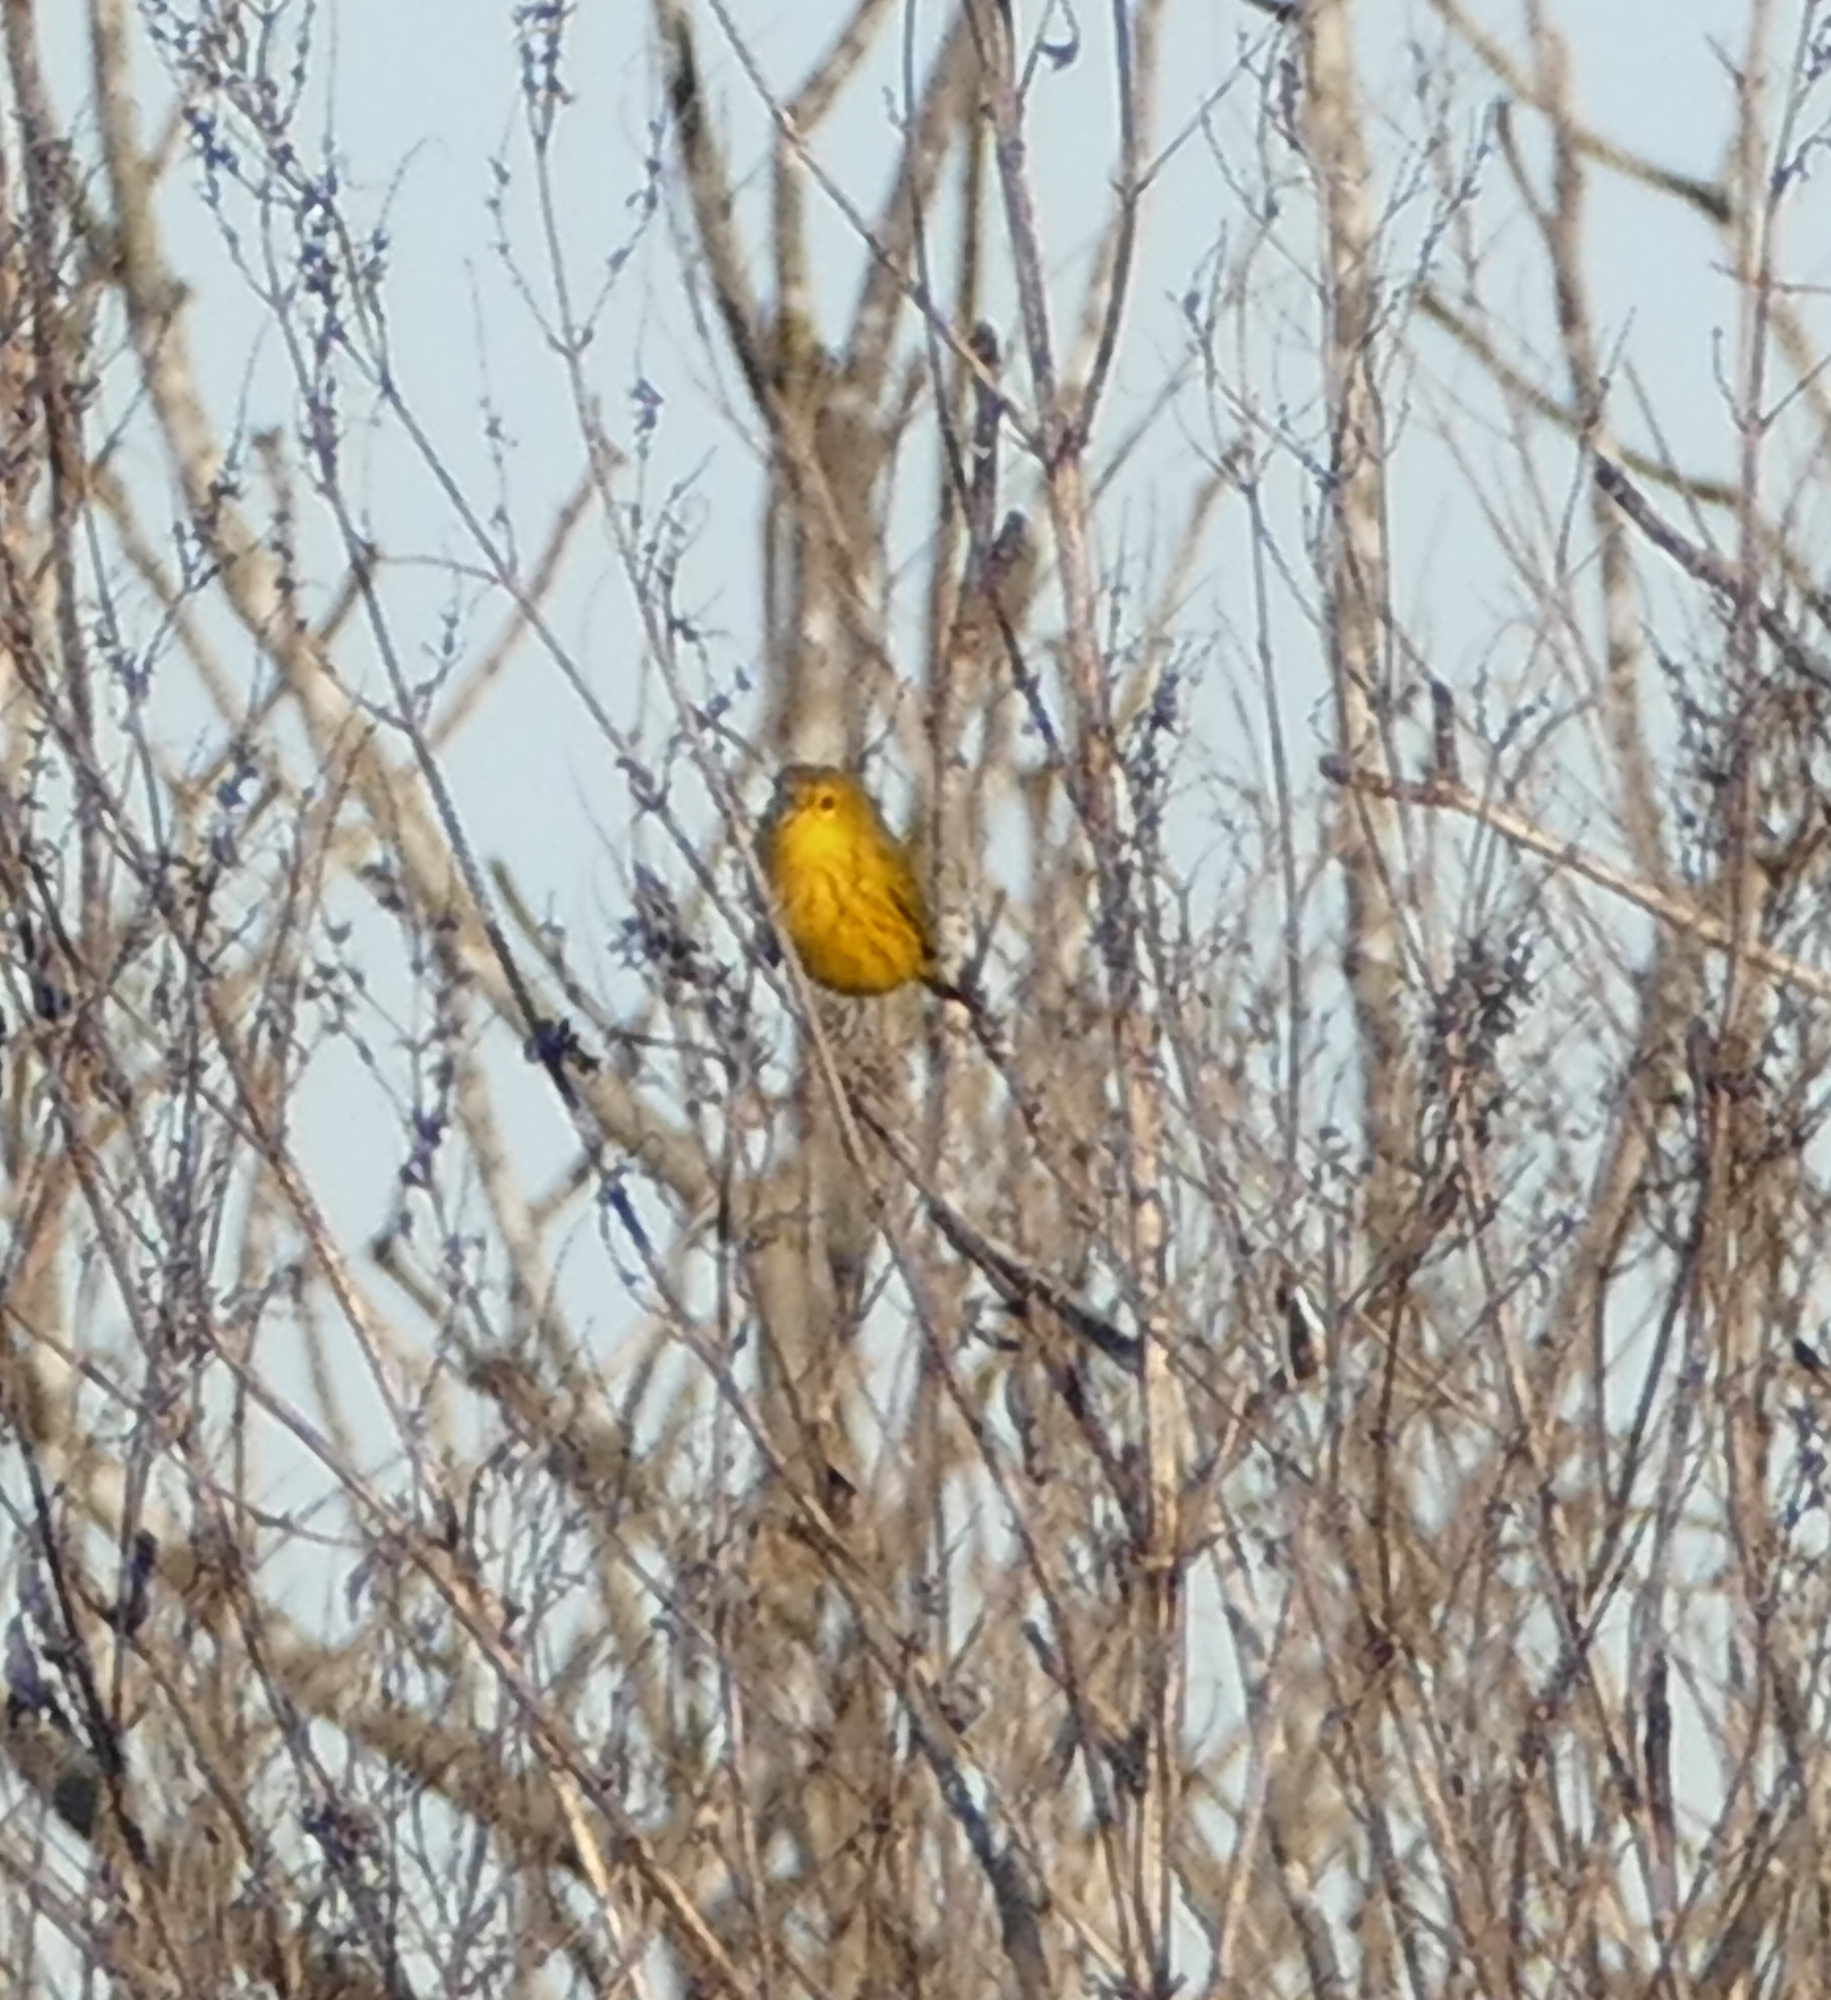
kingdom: Animalia
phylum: Chordata
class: Aves
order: Passeriformes
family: Parulidae
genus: Setophaga
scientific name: Setophaga petechia
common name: Yellow warbler
